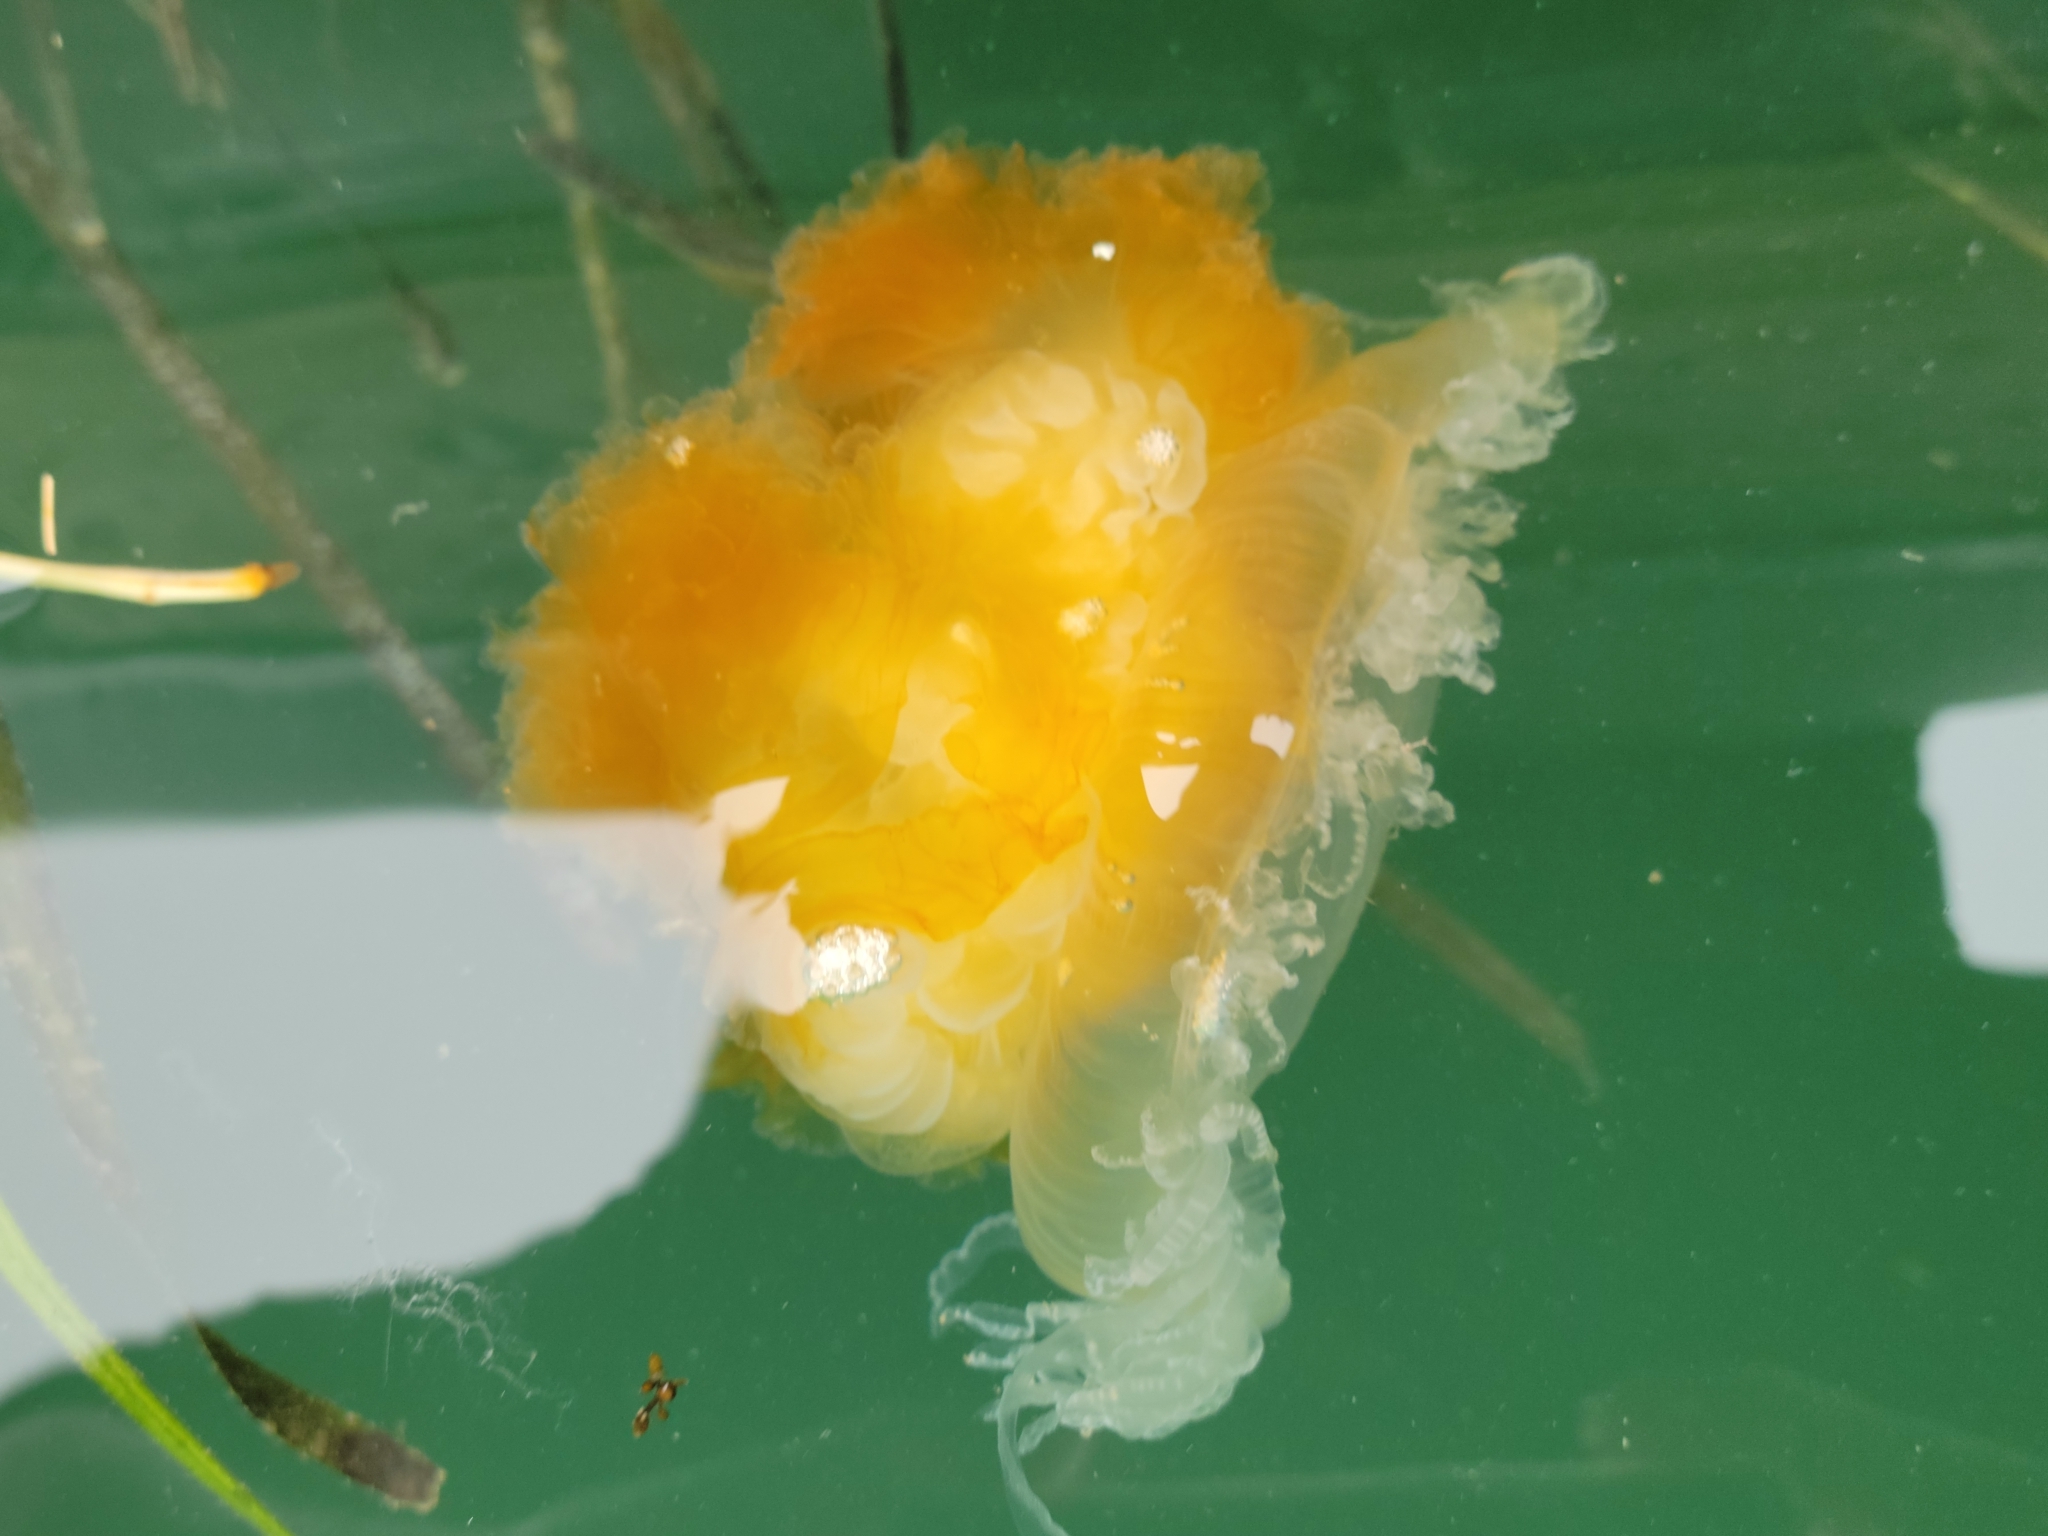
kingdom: Animalia
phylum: Cnidaria
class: Scyphozoa
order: Semaeostomeae
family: Phacellophoridae
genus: Phacellophora
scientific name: Phacellophora camtschatica
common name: Fried-egg jellyfish
